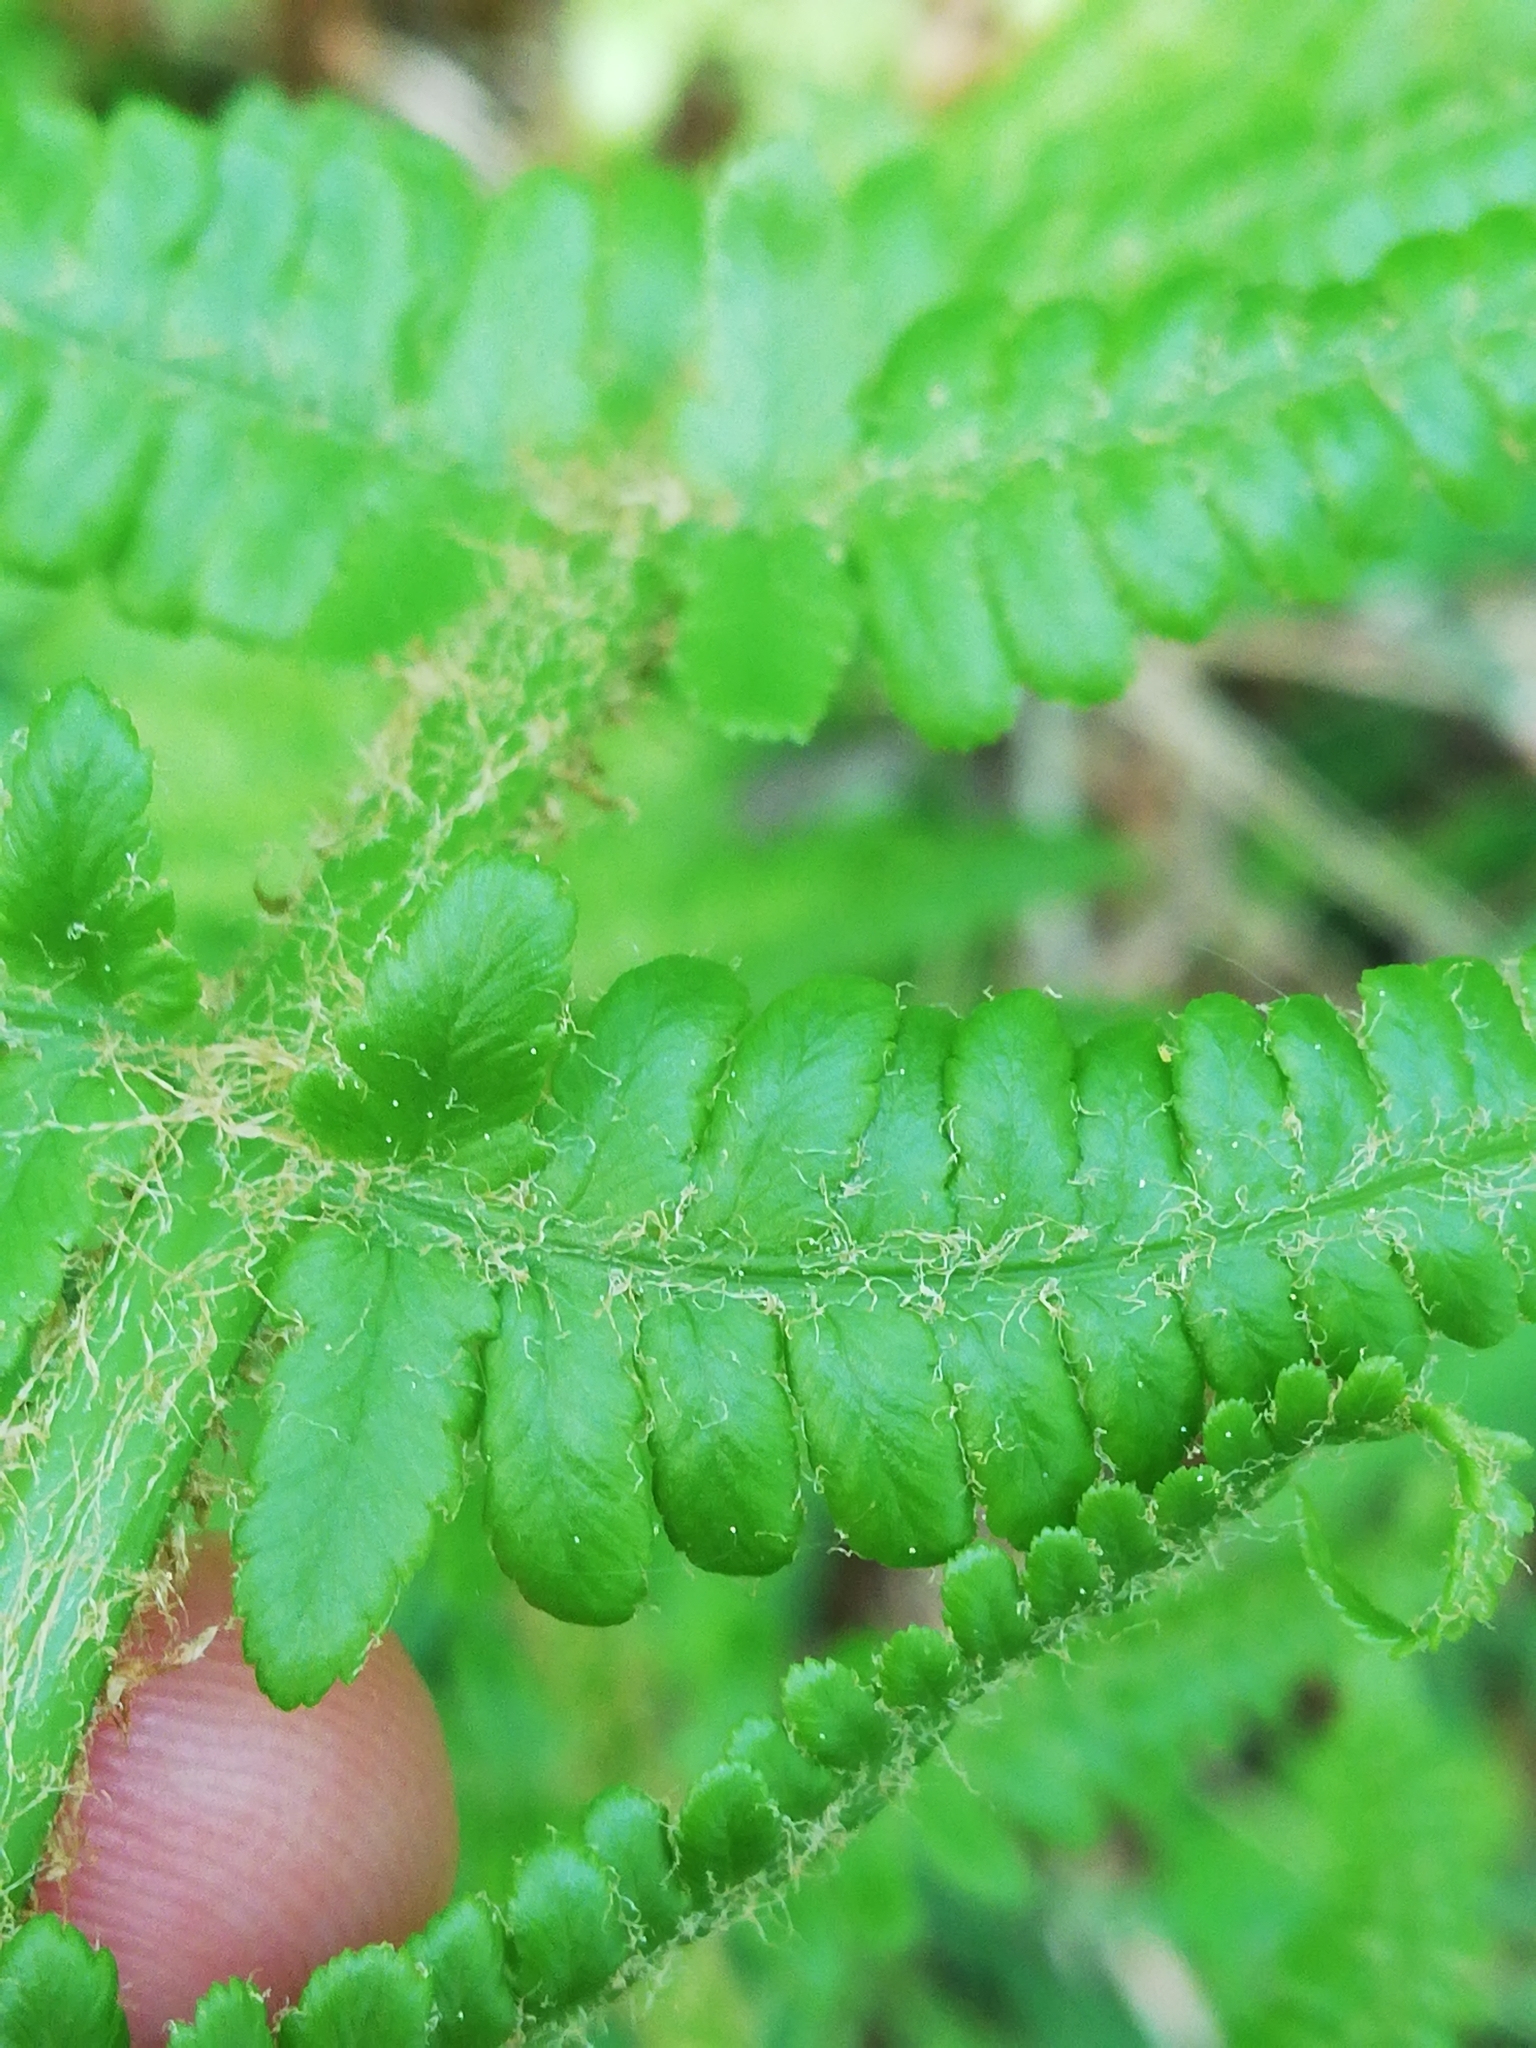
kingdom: Plantae
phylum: Tracheophyta
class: Polypodiopsida
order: Polypodiales
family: Dryopteridaceae
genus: Dryopteris
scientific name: Dryopteris filix-mas
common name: Male fern
